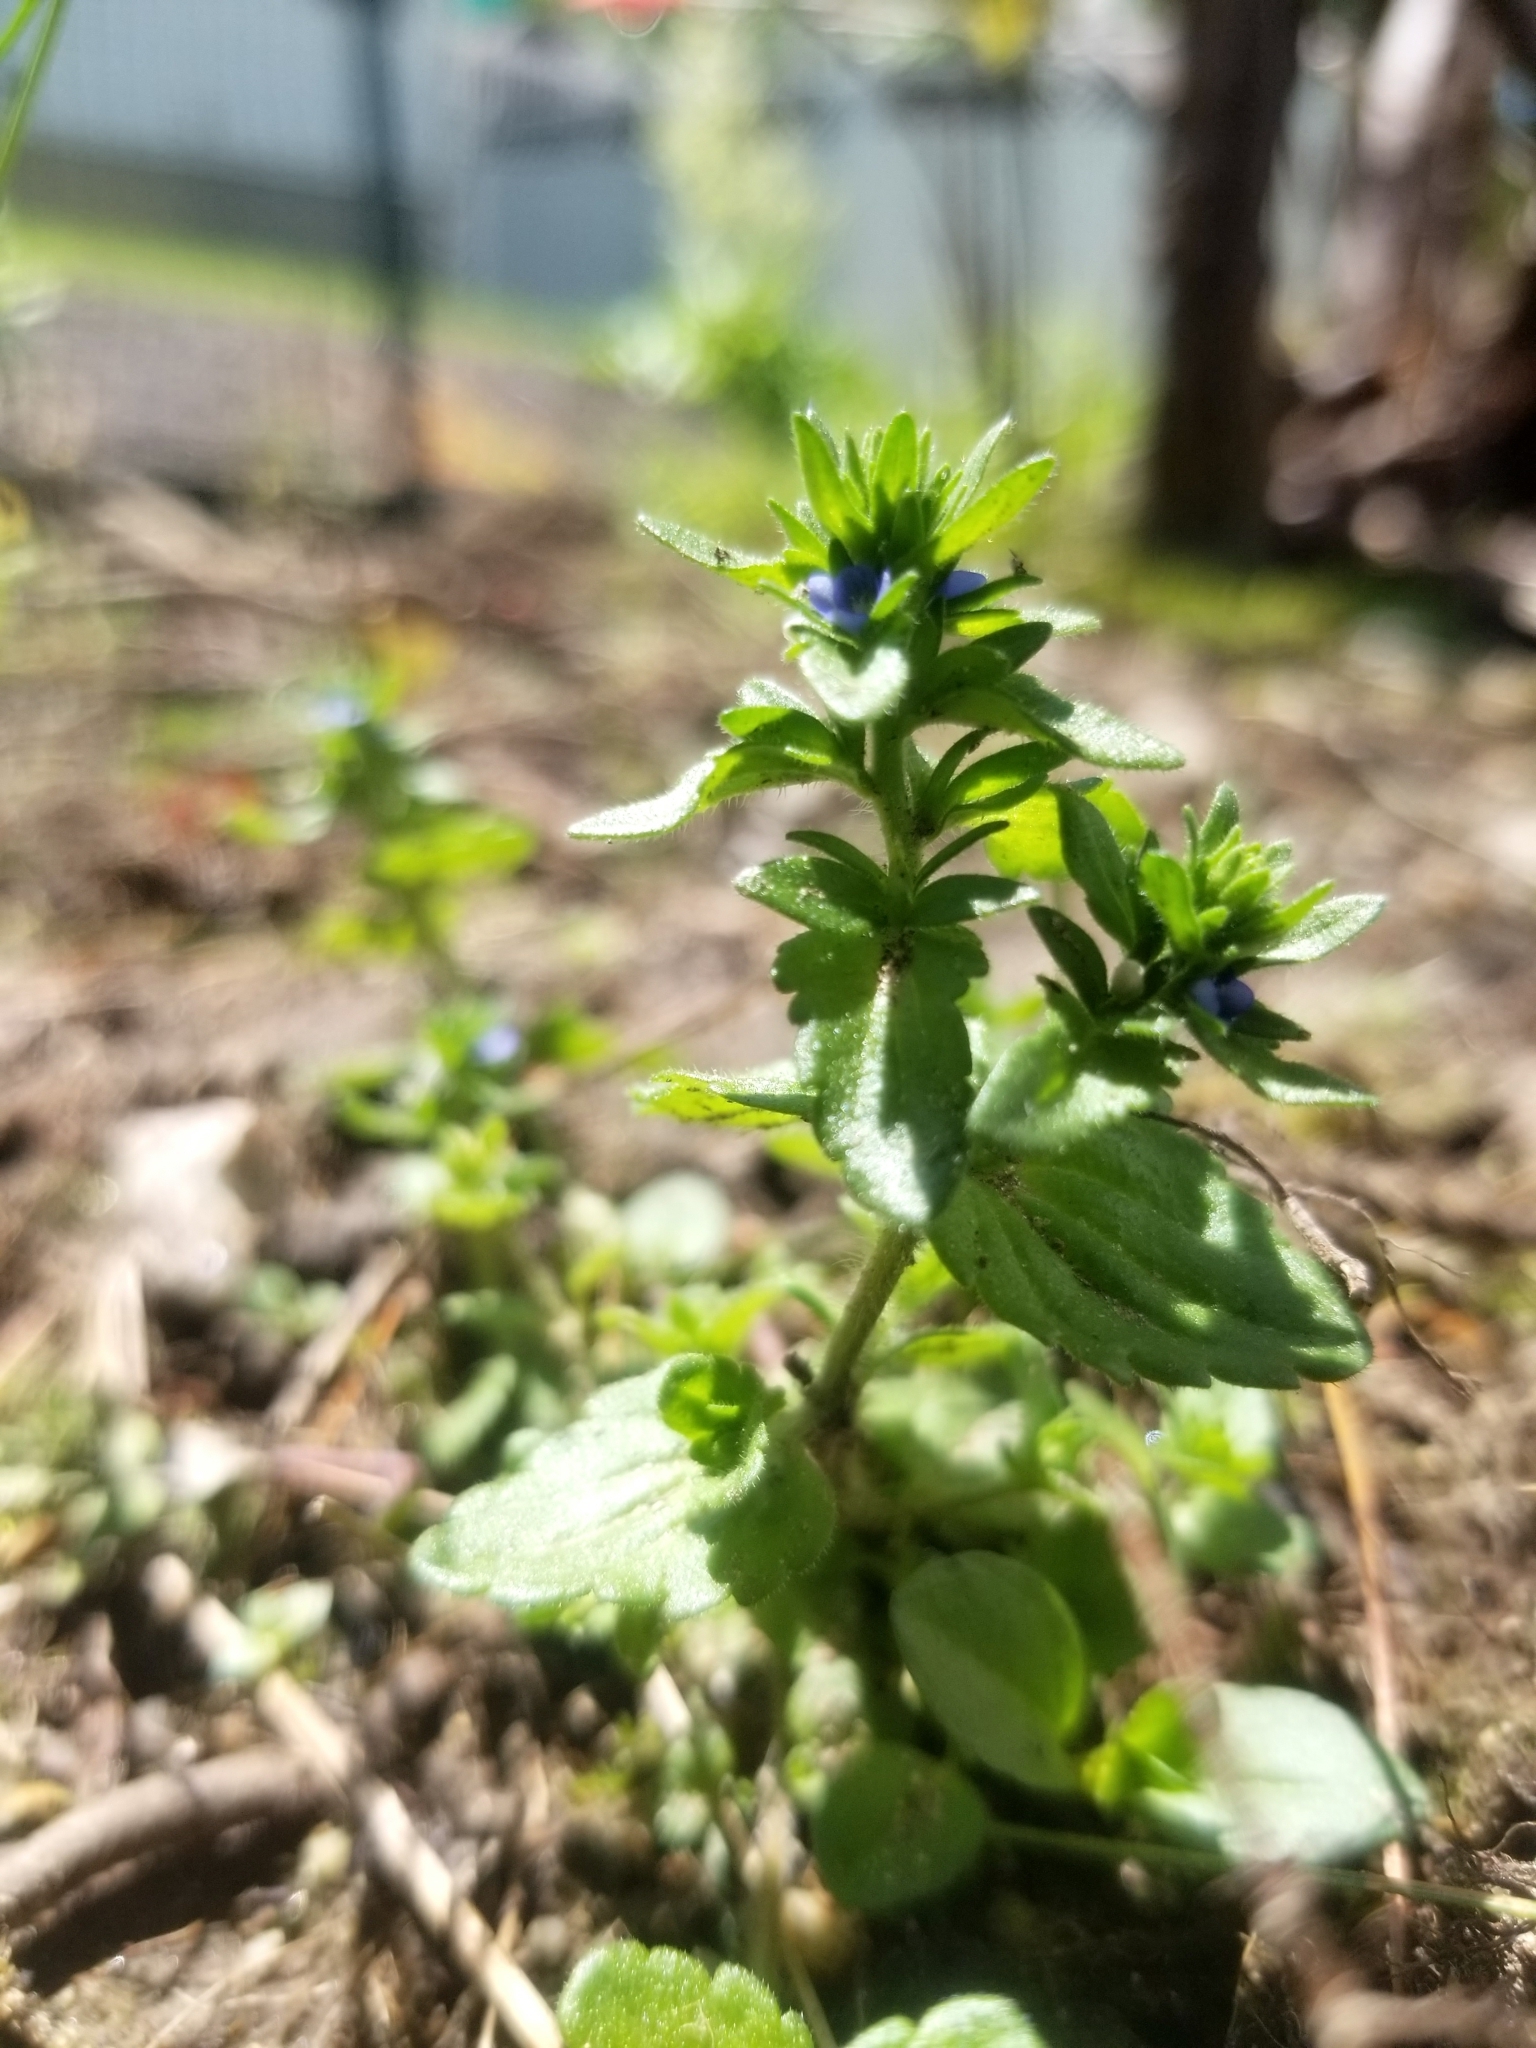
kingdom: Plantae
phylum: Tracheophyta
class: Magnoliopsida
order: Lamiales
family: Plantaginaceae
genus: Veronica
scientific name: Veronica arvensis
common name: Corn speedwell
